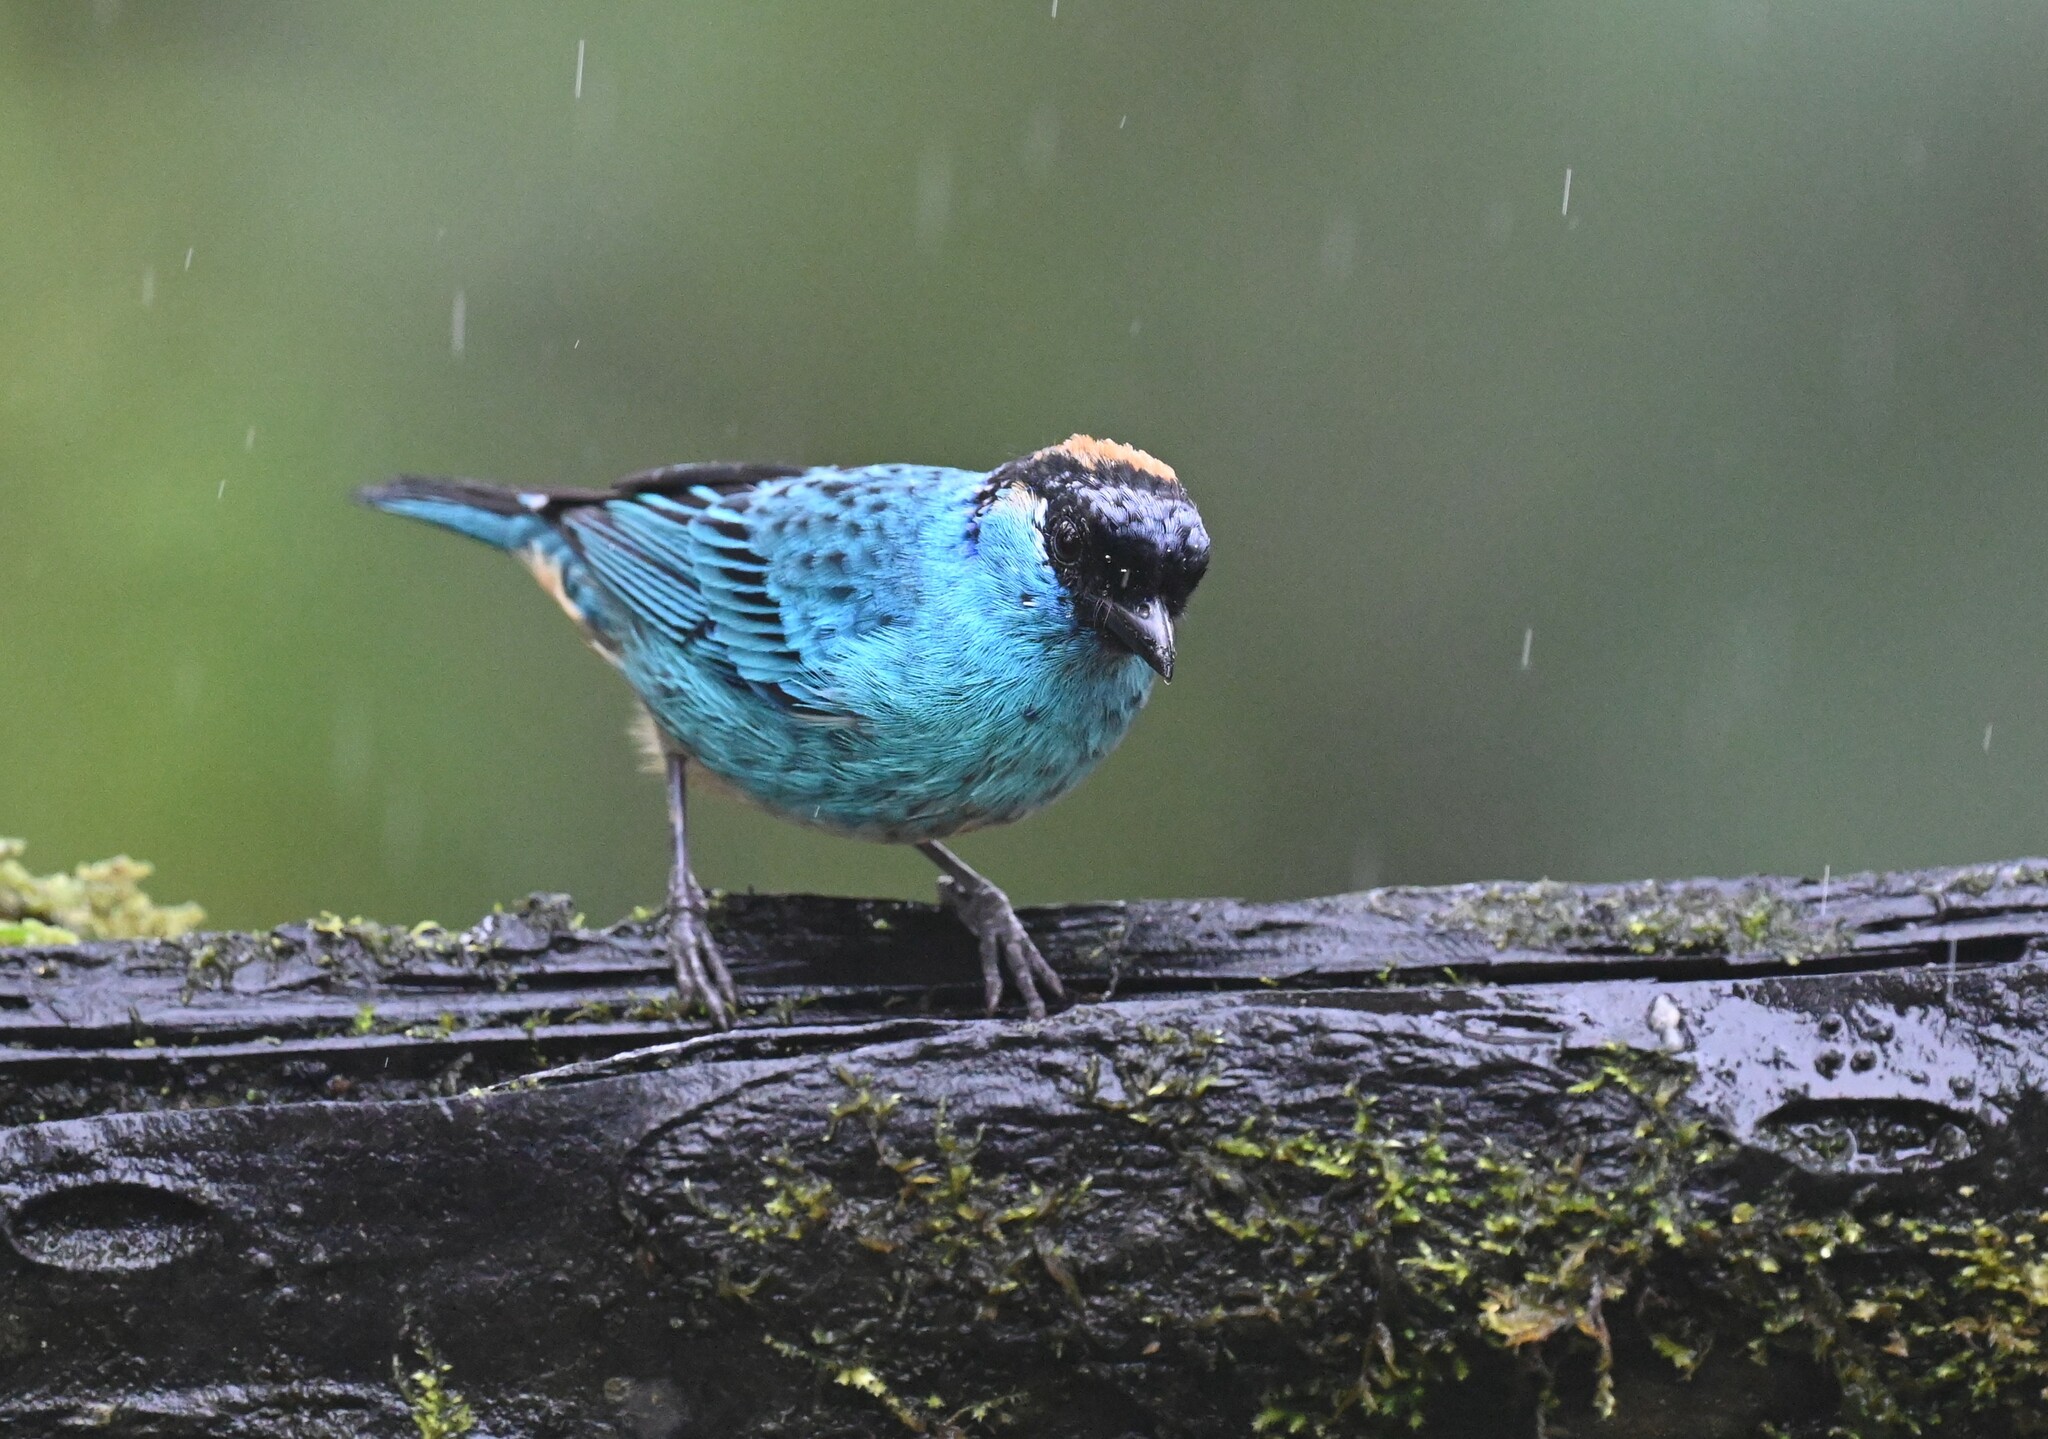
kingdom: Animalia
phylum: Chordata
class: Aves
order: Passeriformes
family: Thraupidae
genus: Chalcothraupis
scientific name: Chalcothraupis ruficervix
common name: Golden-naped tanager
